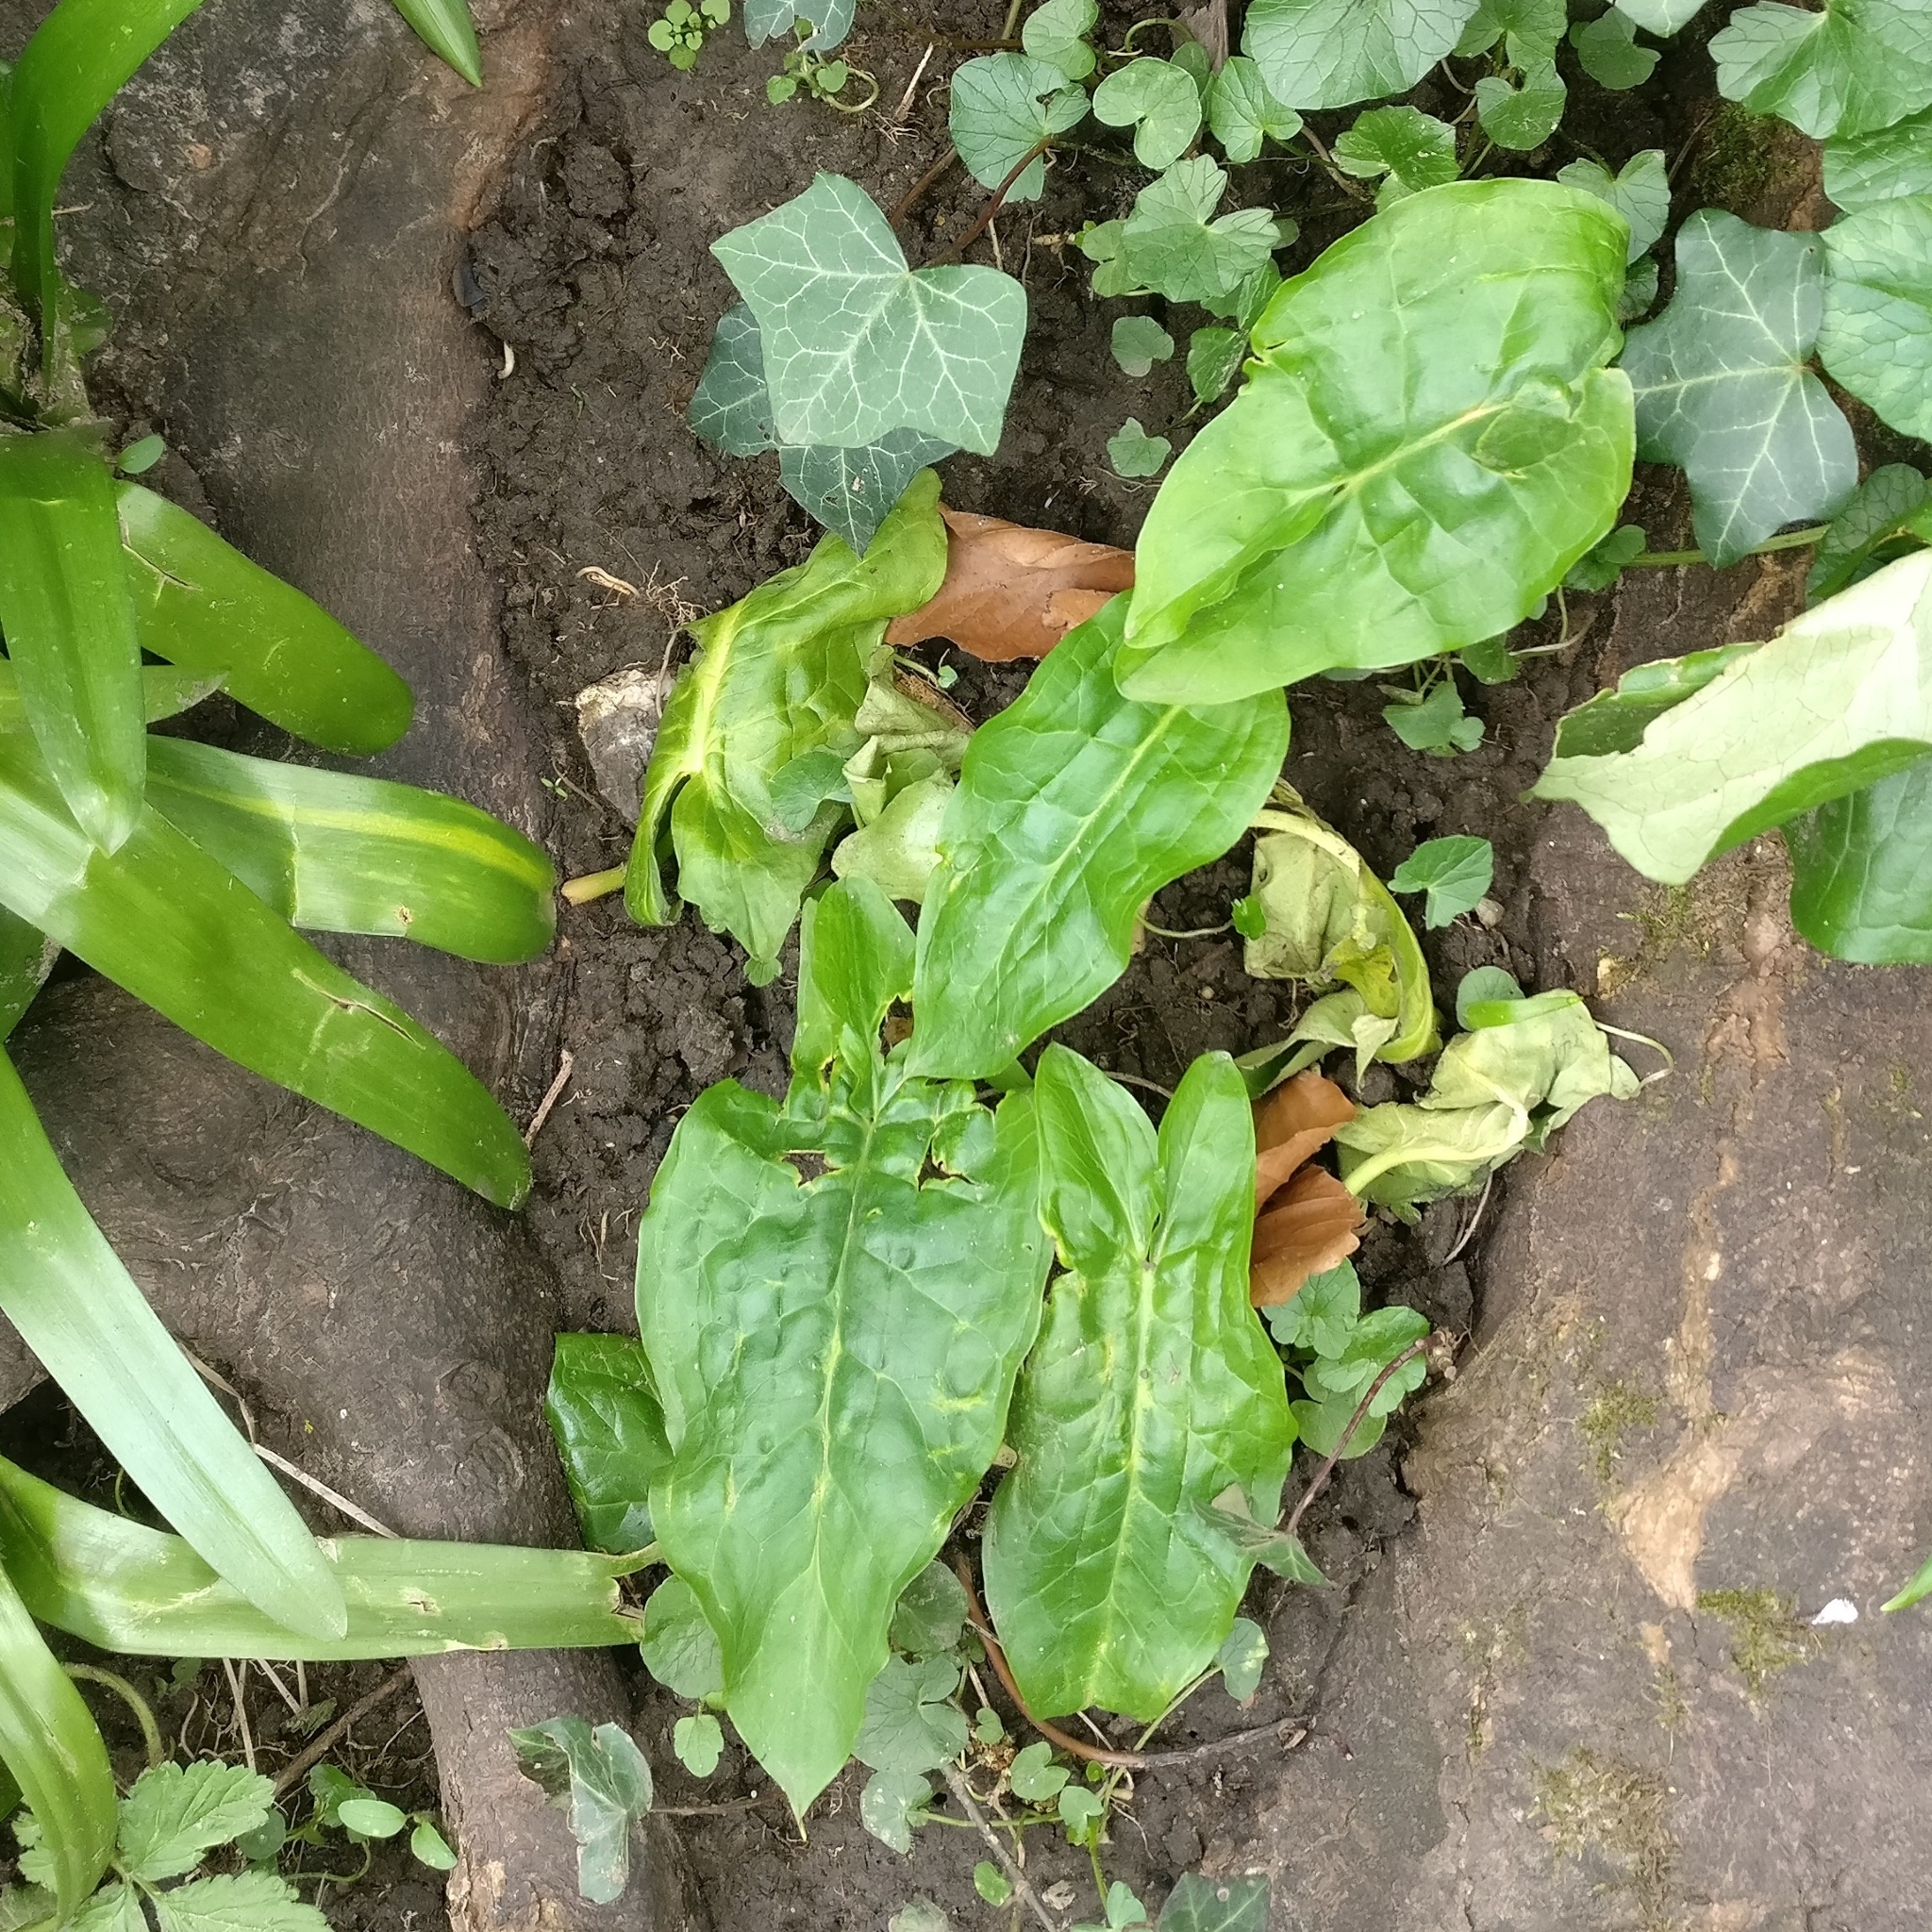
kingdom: Plantae
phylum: Tracheophyta
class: Liliopsida
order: Alismatales
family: Araceae
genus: Arum
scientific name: Arum maculatum
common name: Lords-and-ladies
